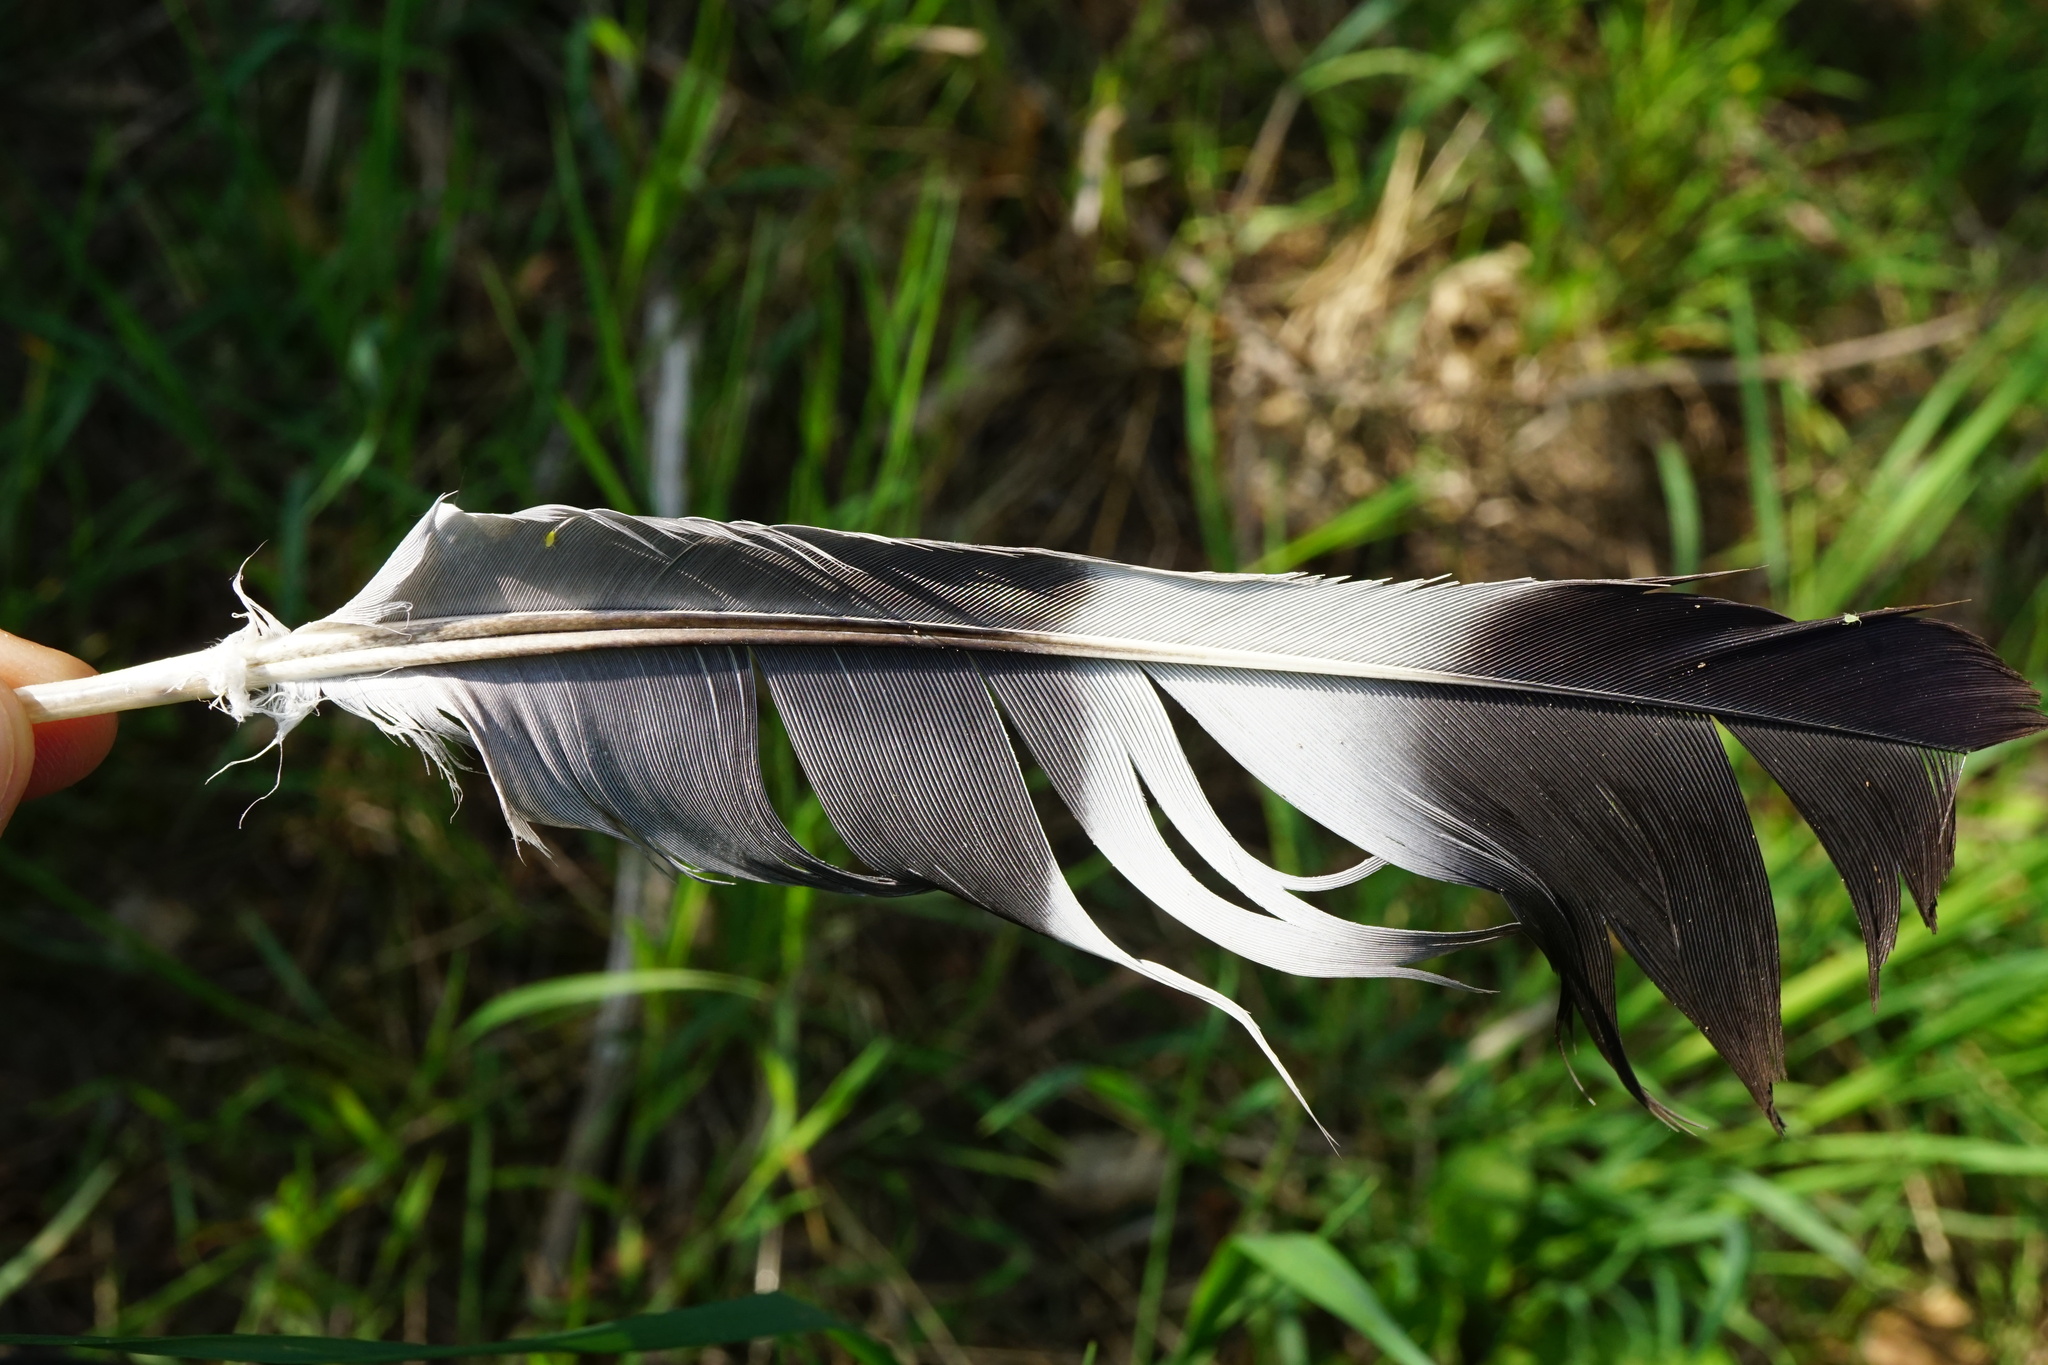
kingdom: Animalia
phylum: Chordata
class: Aves
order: Columbiformes
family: Columbidae
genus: Columba
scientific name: Columba palumbus
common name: Common wood pigeon
